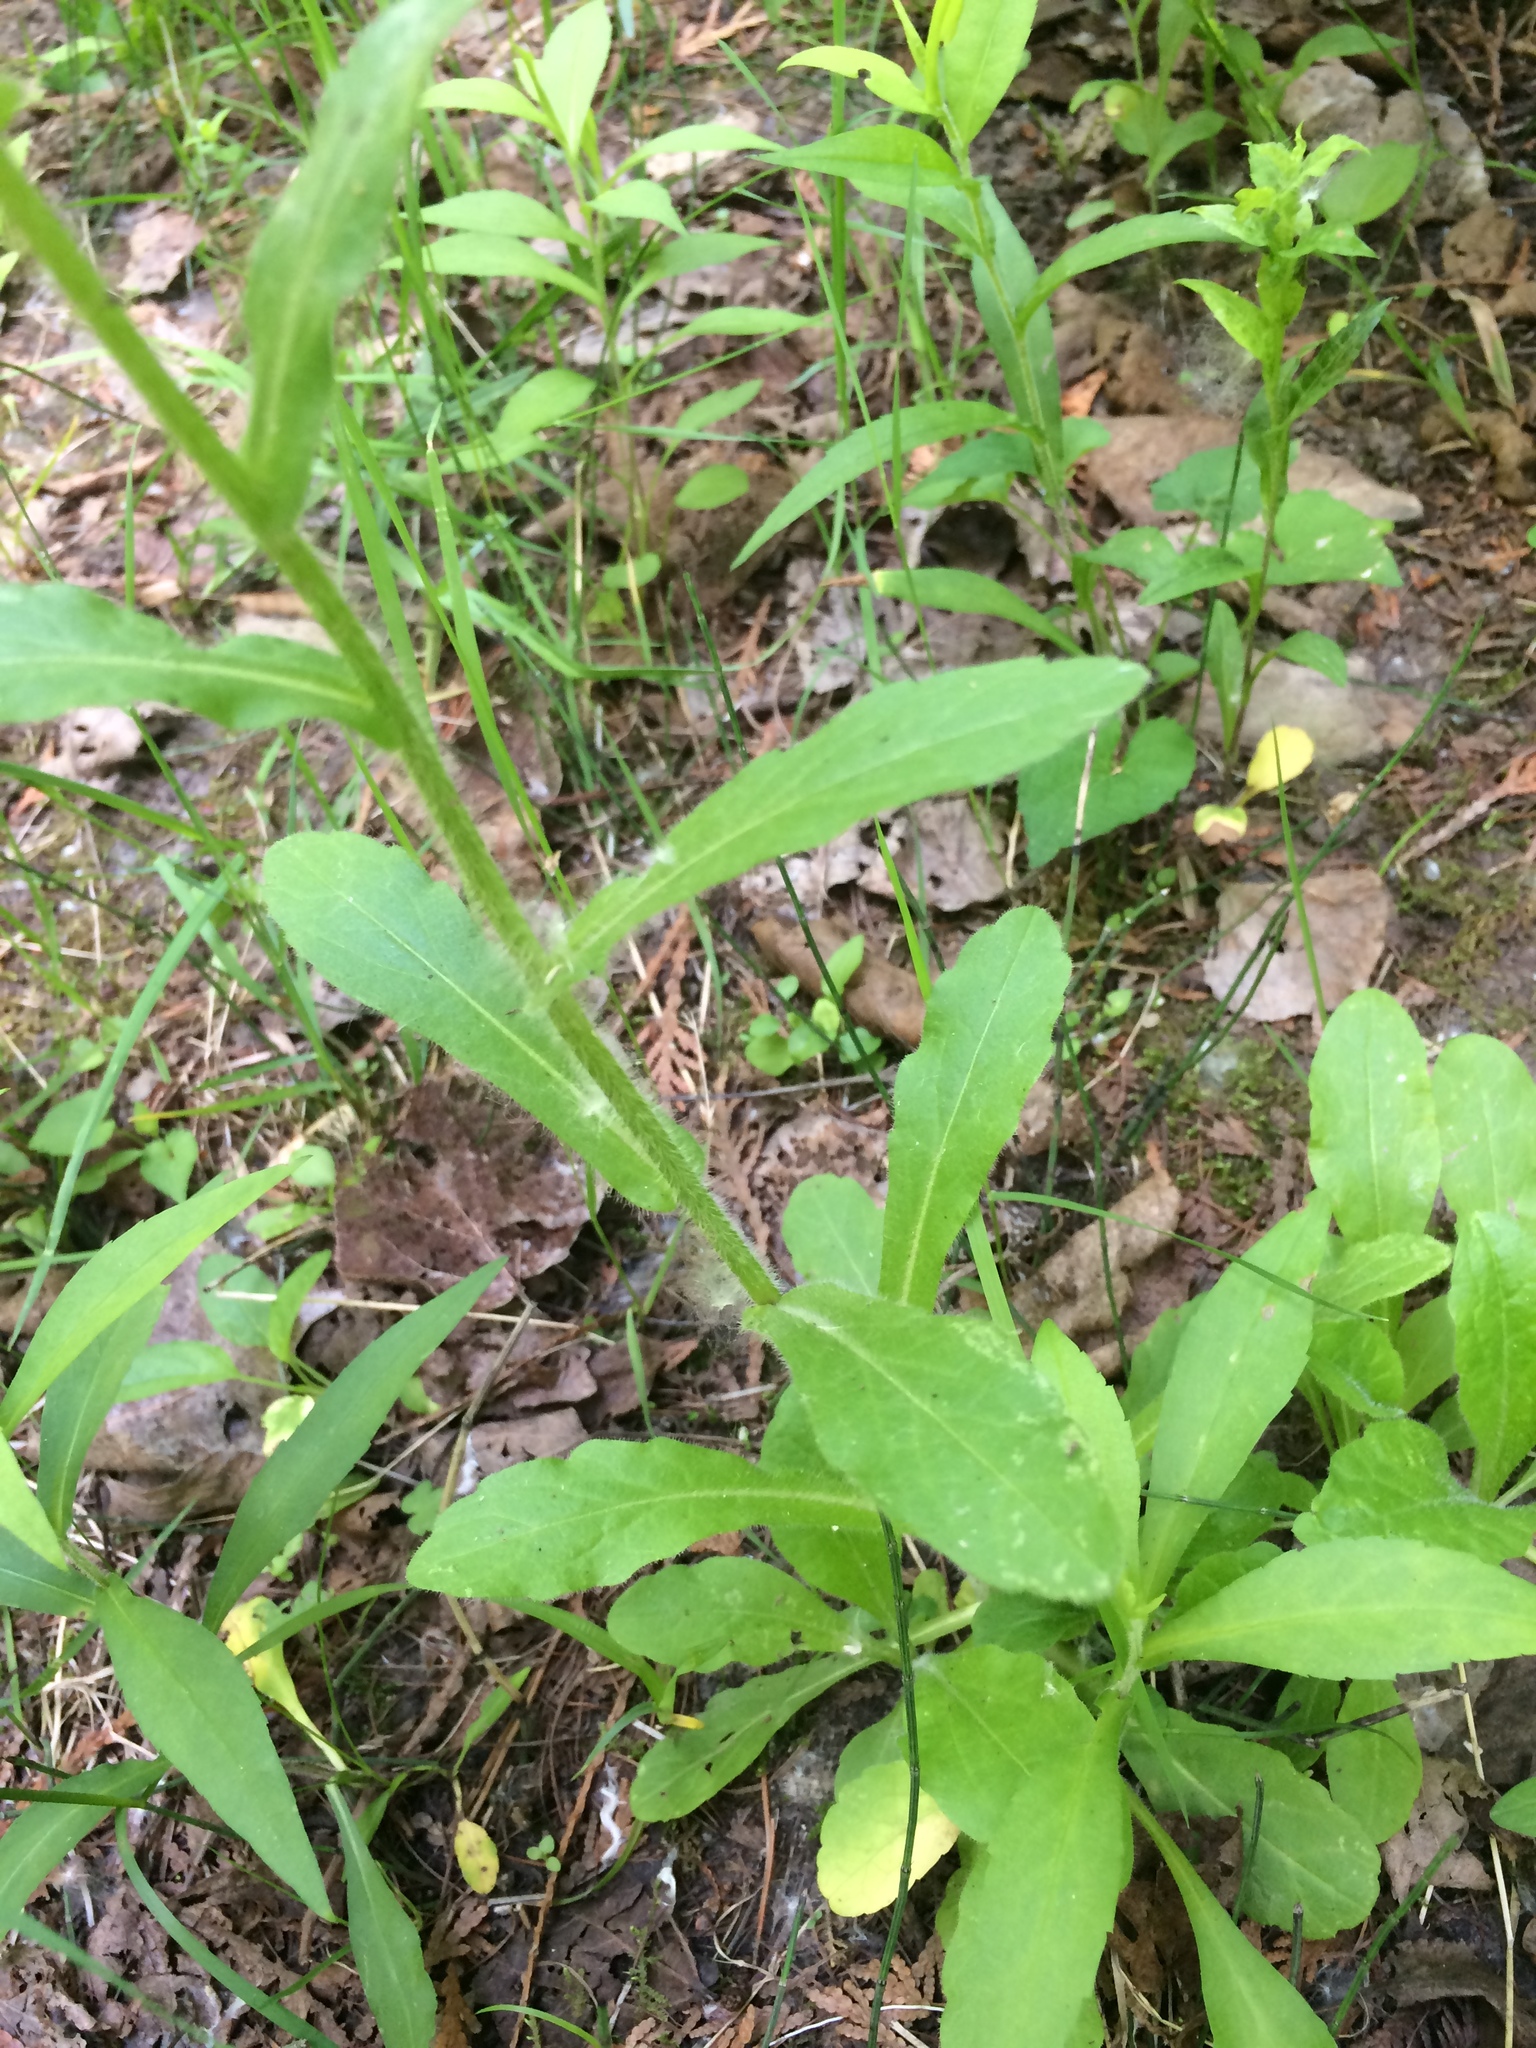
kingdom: Plantae
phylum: Tracheophyta
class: Magnoliopsida
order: Asterales
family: Asteraceae
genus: Erigeron
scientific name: Erigeron philadelphicus
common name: Robin's-plantain
